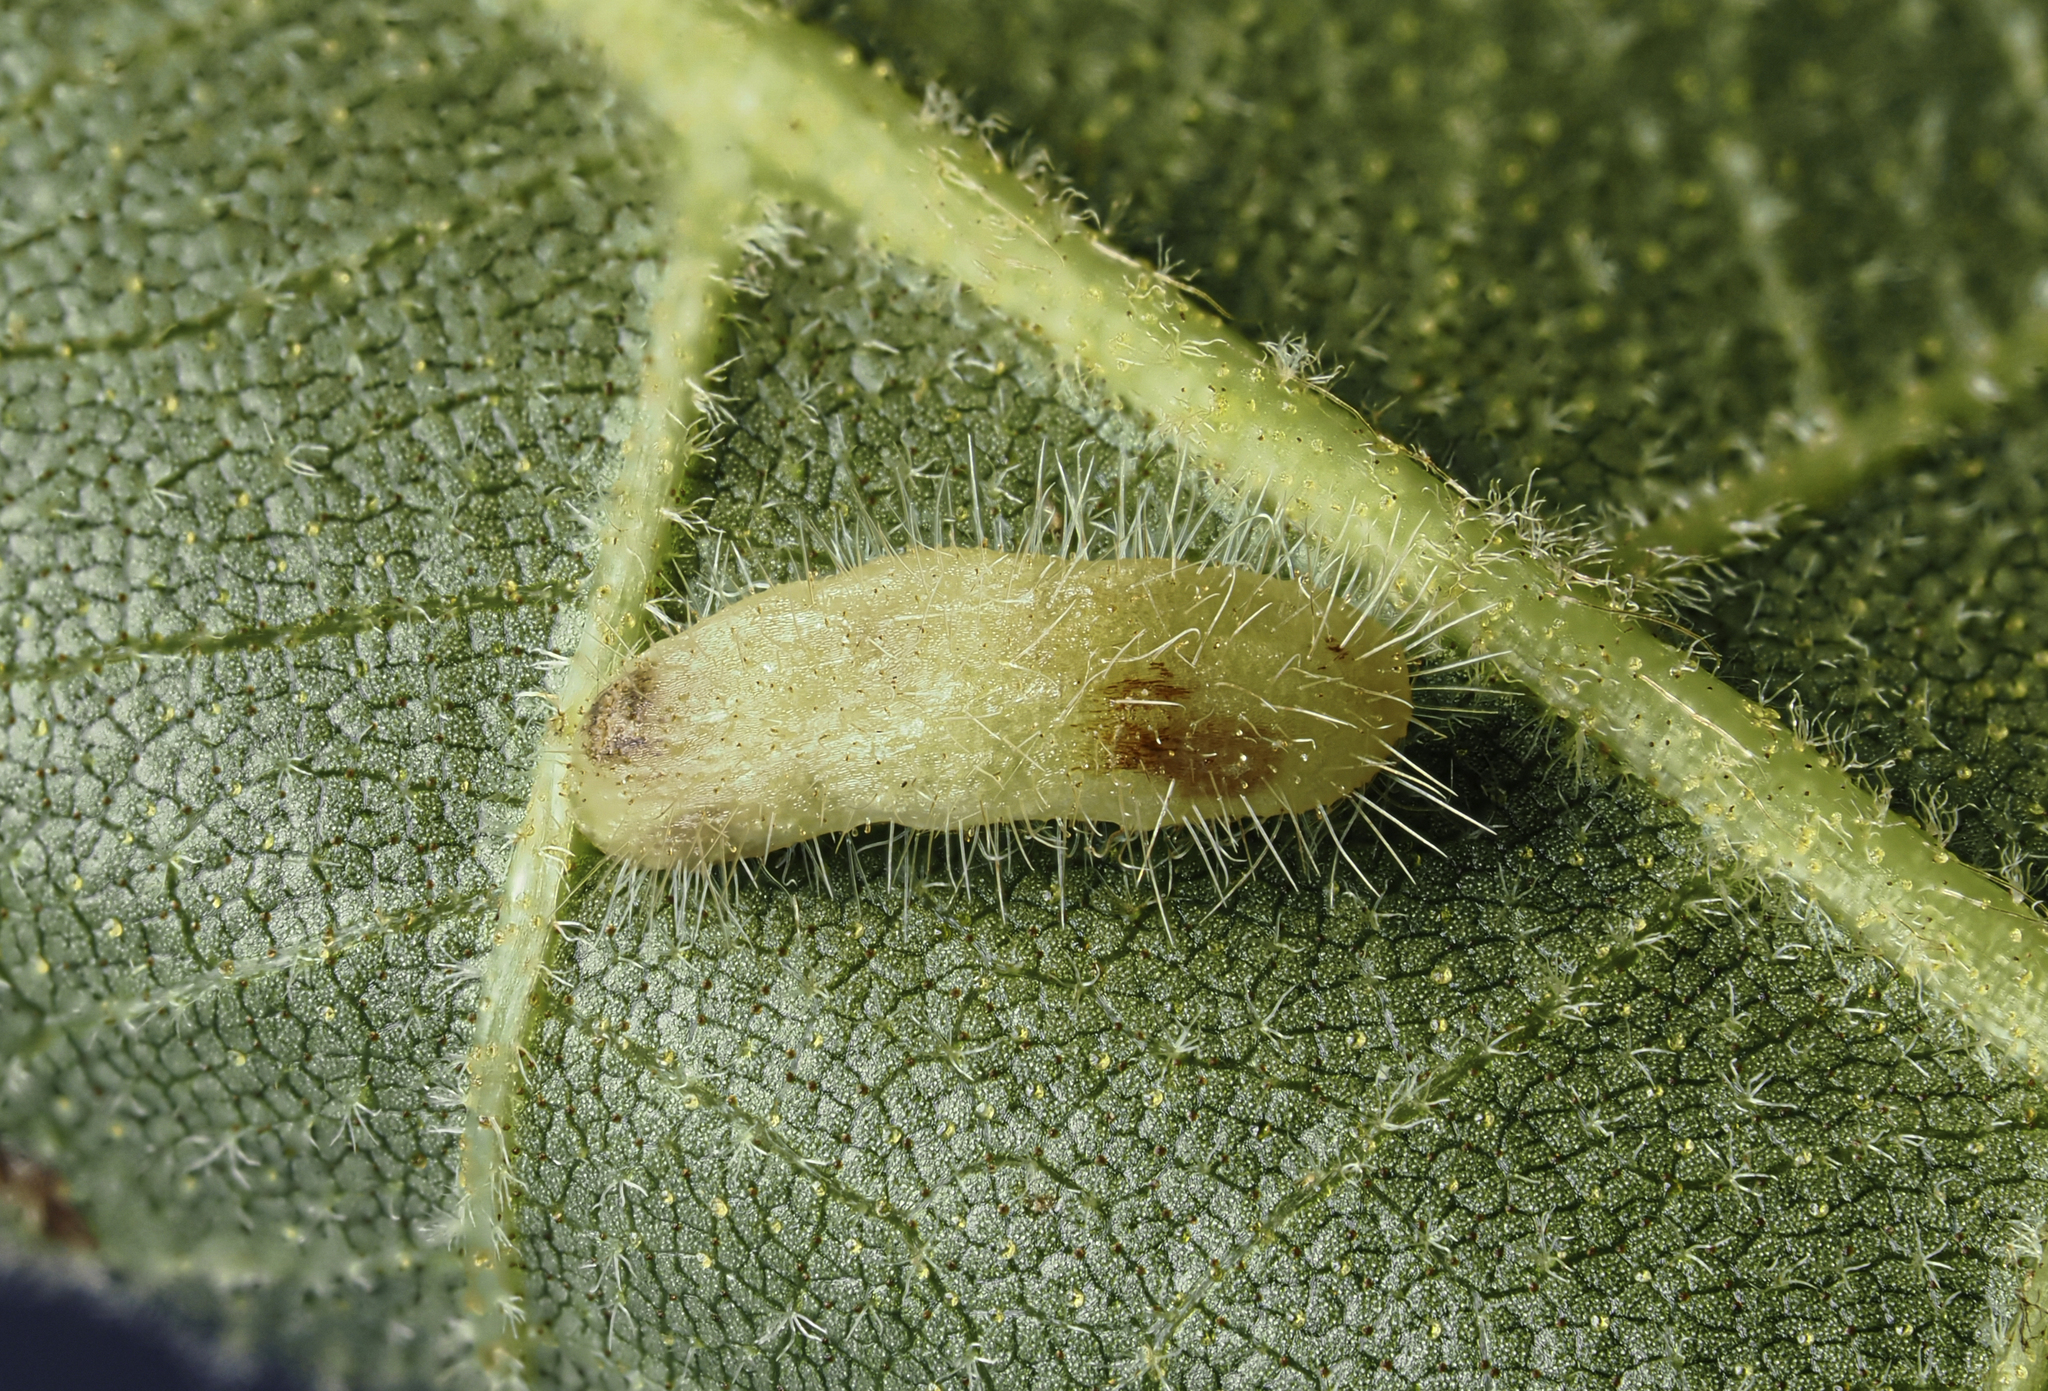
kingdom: Animalia
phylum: Arthropoda
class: Insecta
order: Diptera
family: Cecidomyiidae
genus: Contarinia
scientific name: Contarinia cucumata
